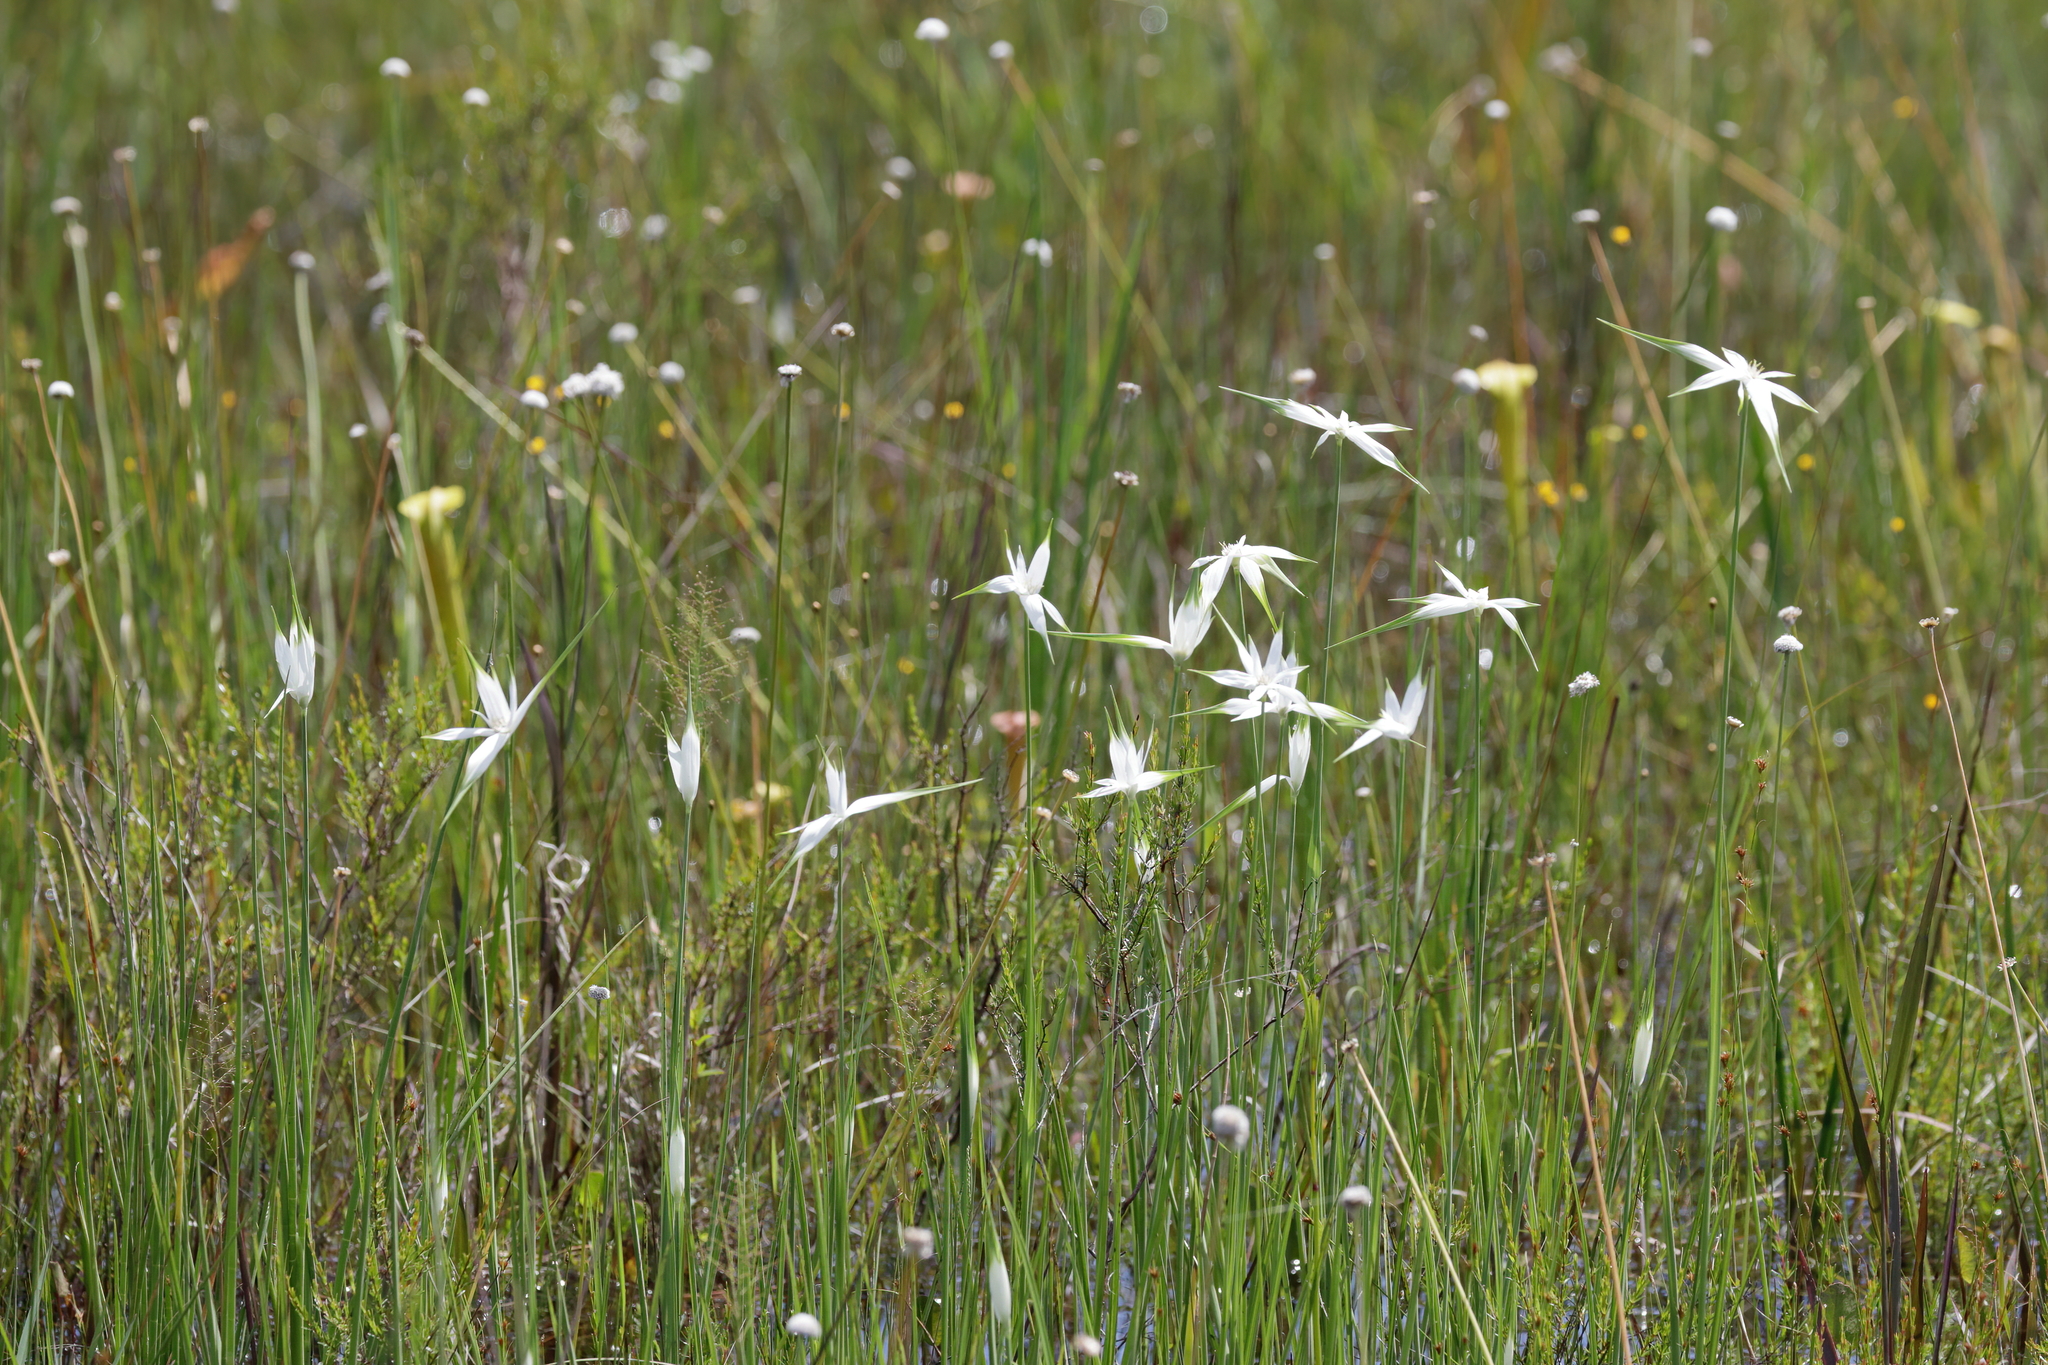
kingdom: Plantae
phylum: Tracheophyta
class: Liliopsida
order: Poales
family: Cyperaceae
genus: Rhynchospora
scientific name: Rhynchospora latifolia
